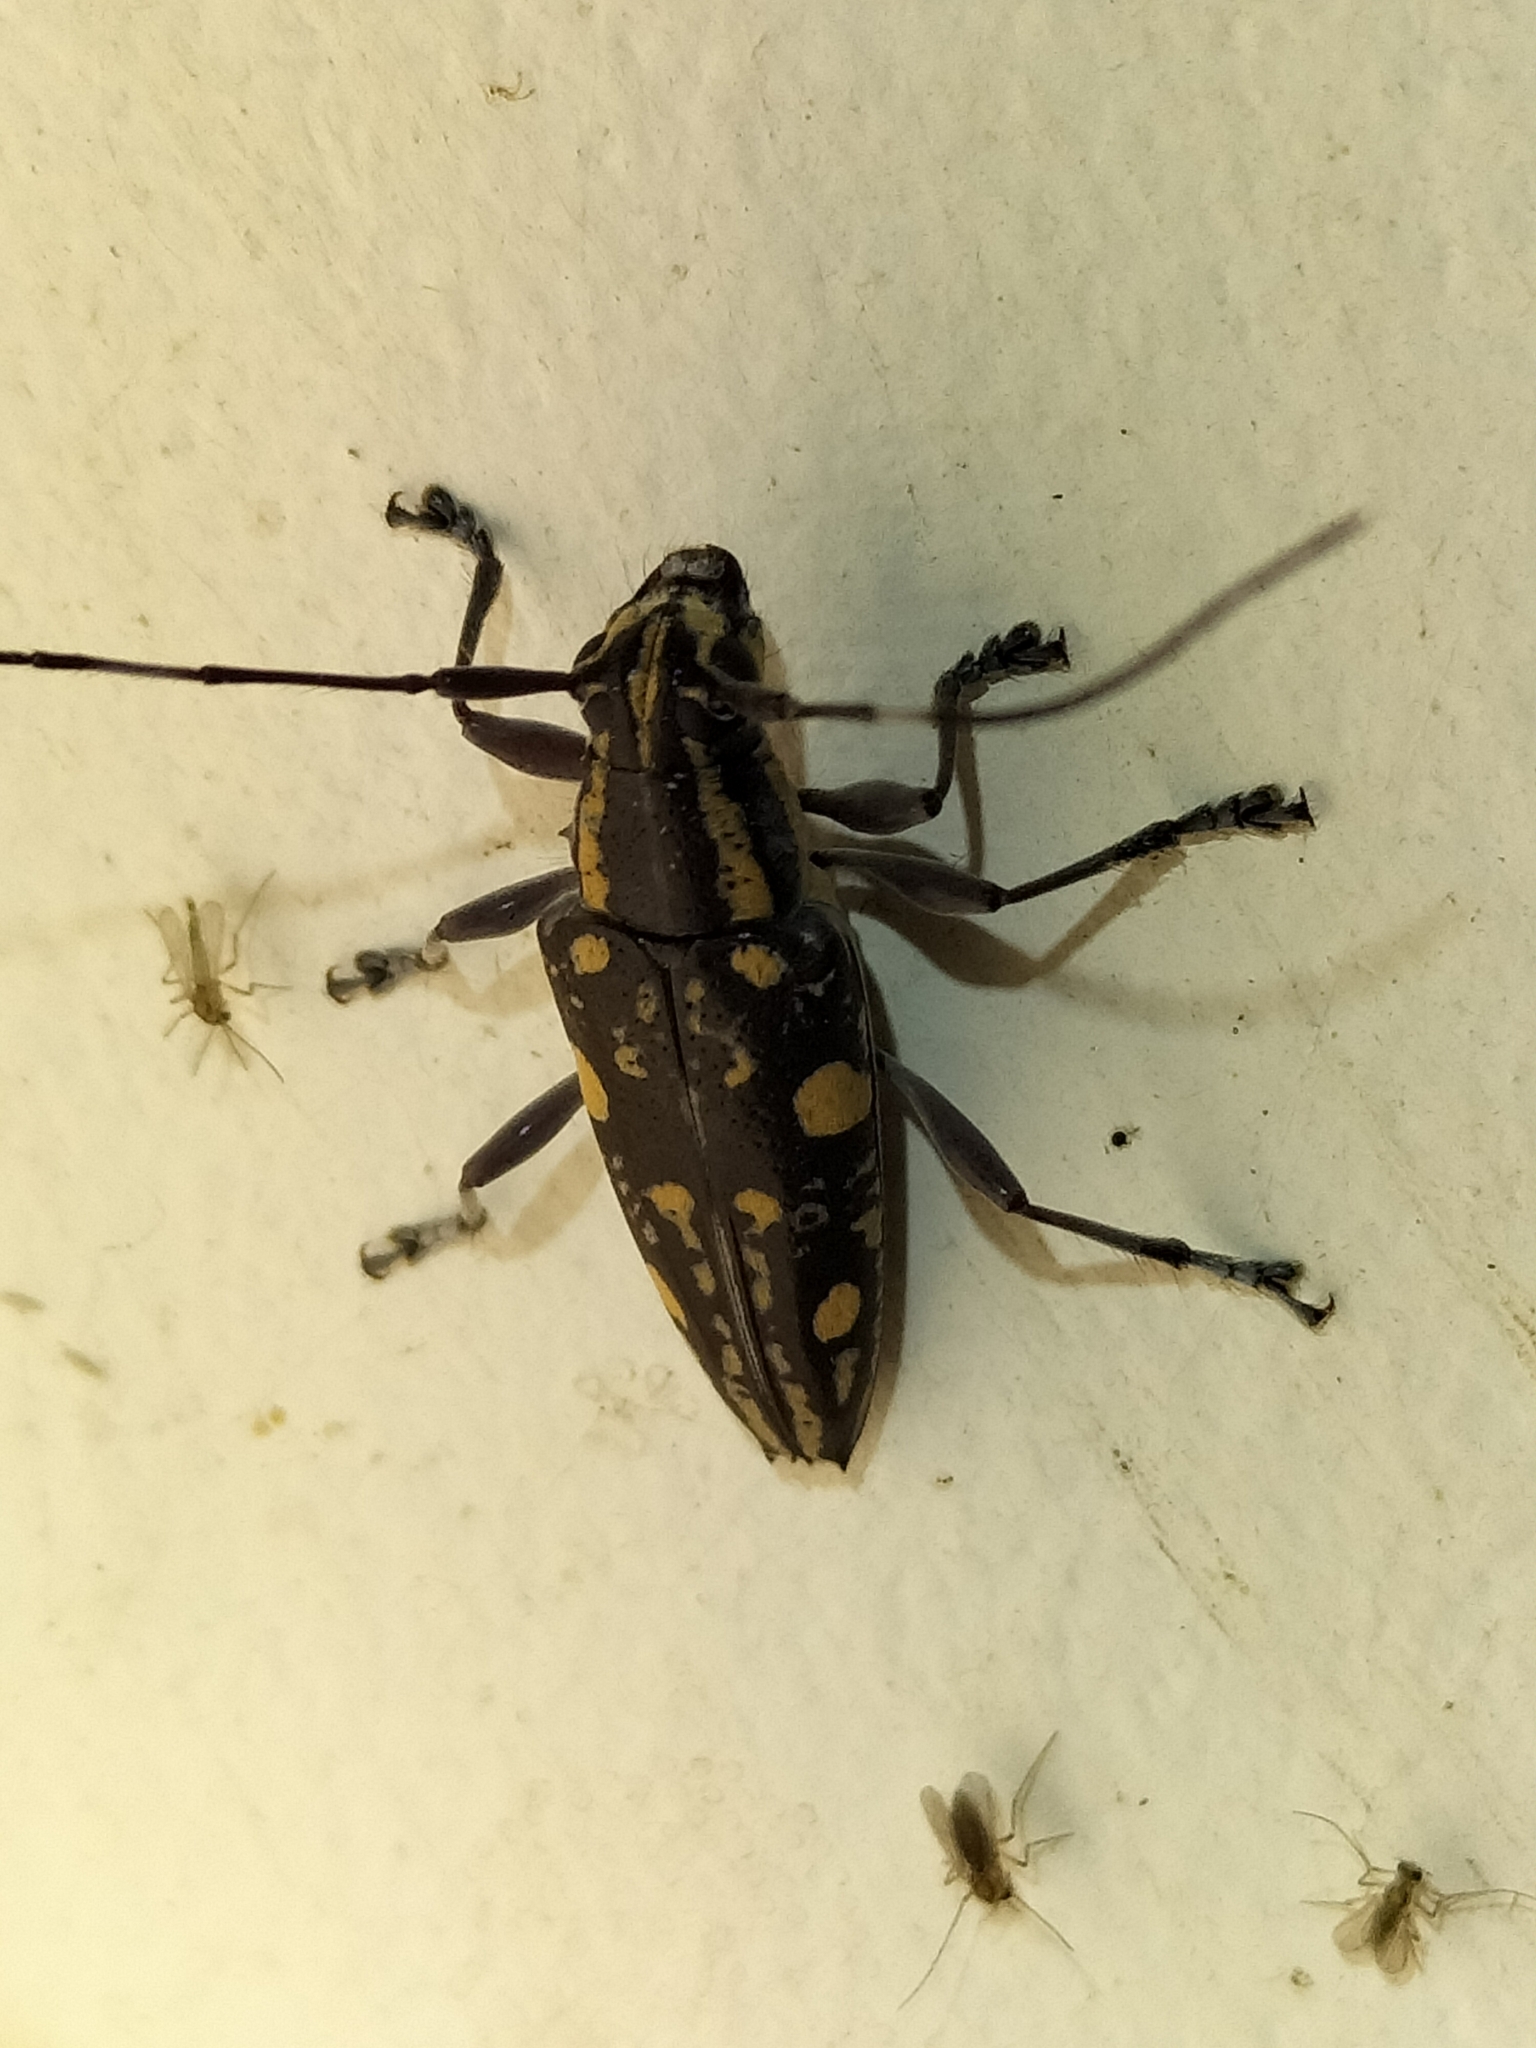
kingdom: Animalia
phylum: Arthropoda
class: Insecta
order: Coleoptera
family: Cerambycidae
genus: Trigonoptera
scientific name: Trigonoptera gracilis
